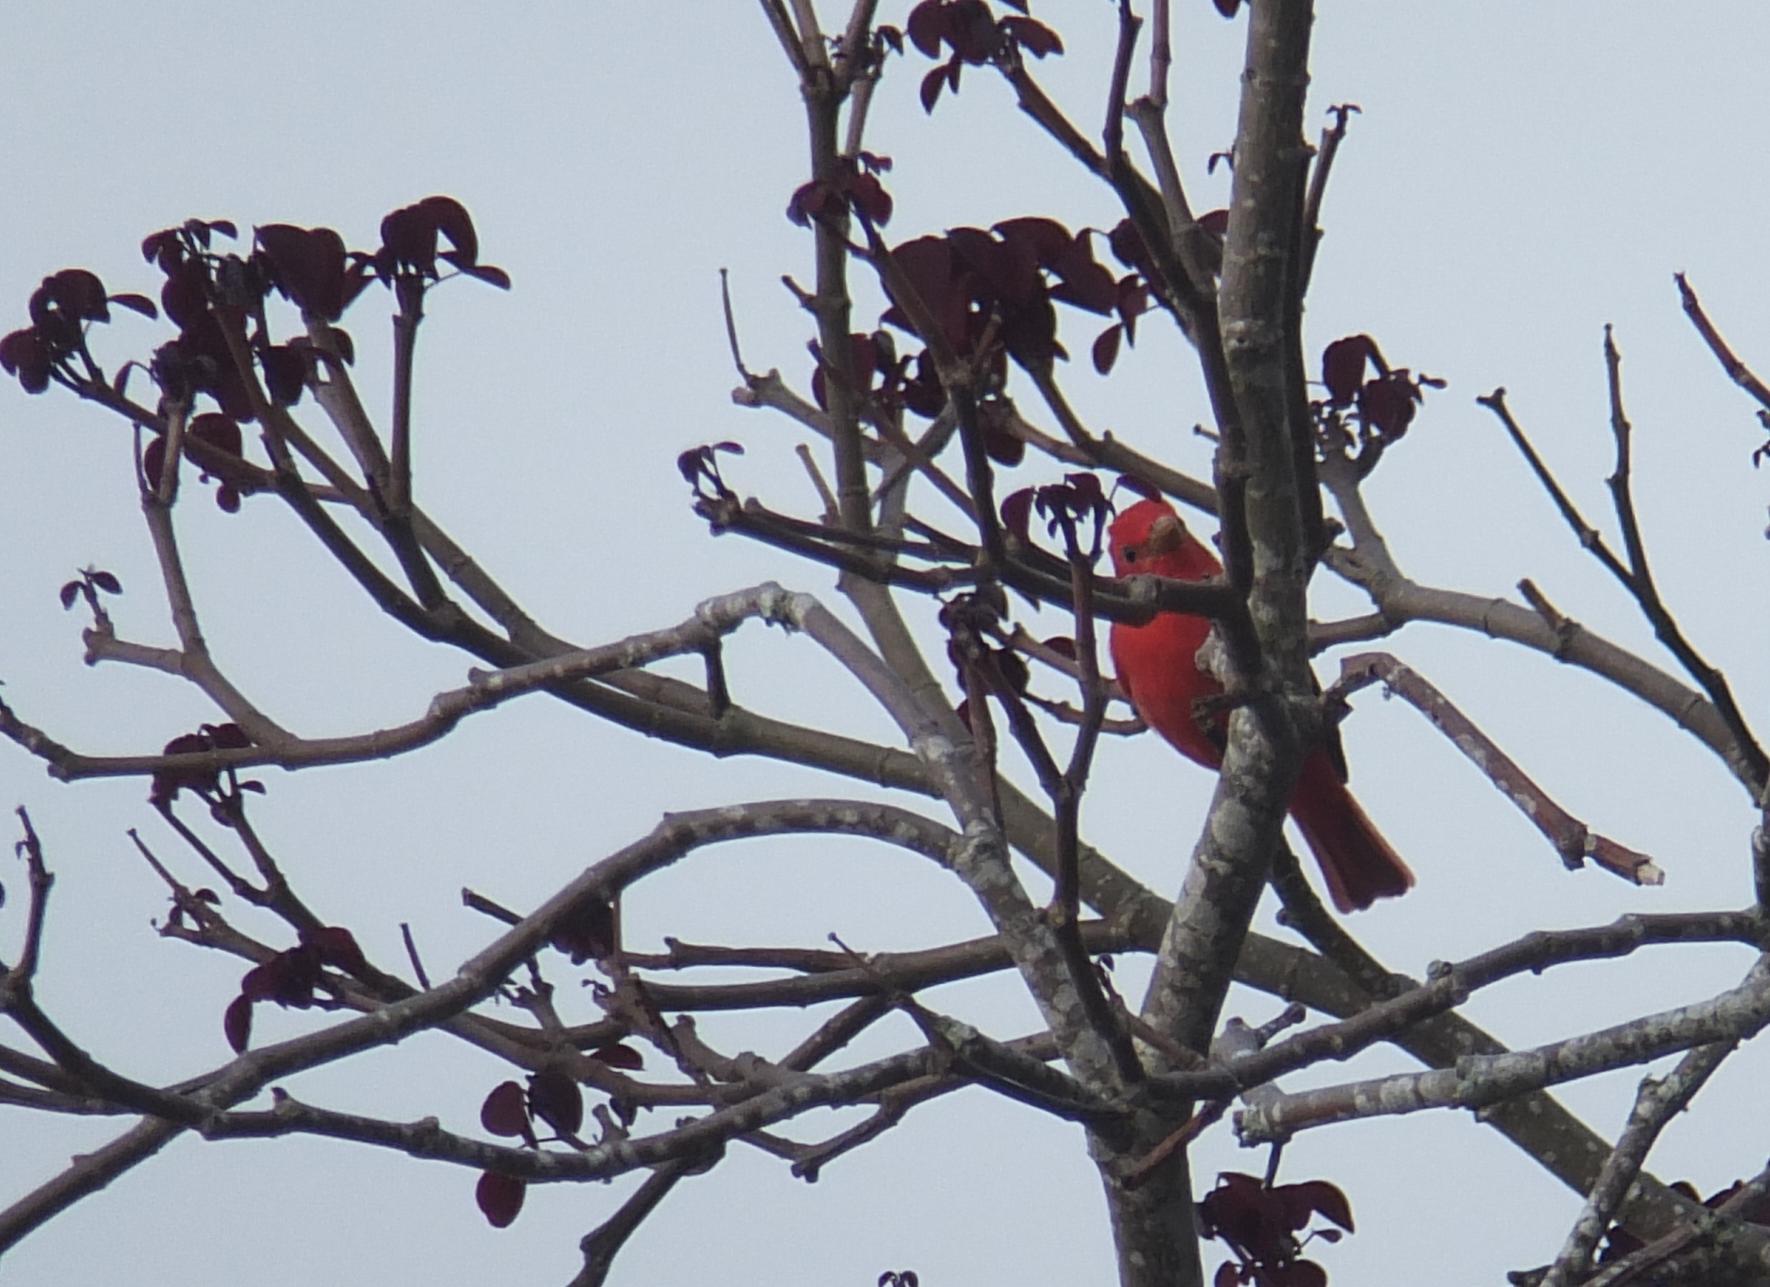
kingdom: Animalia
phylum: Chordata
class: Aves
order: Passeriformes
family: Cardinalidae
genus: Piranga
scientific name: Piranga rubra
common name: Summer tanager
